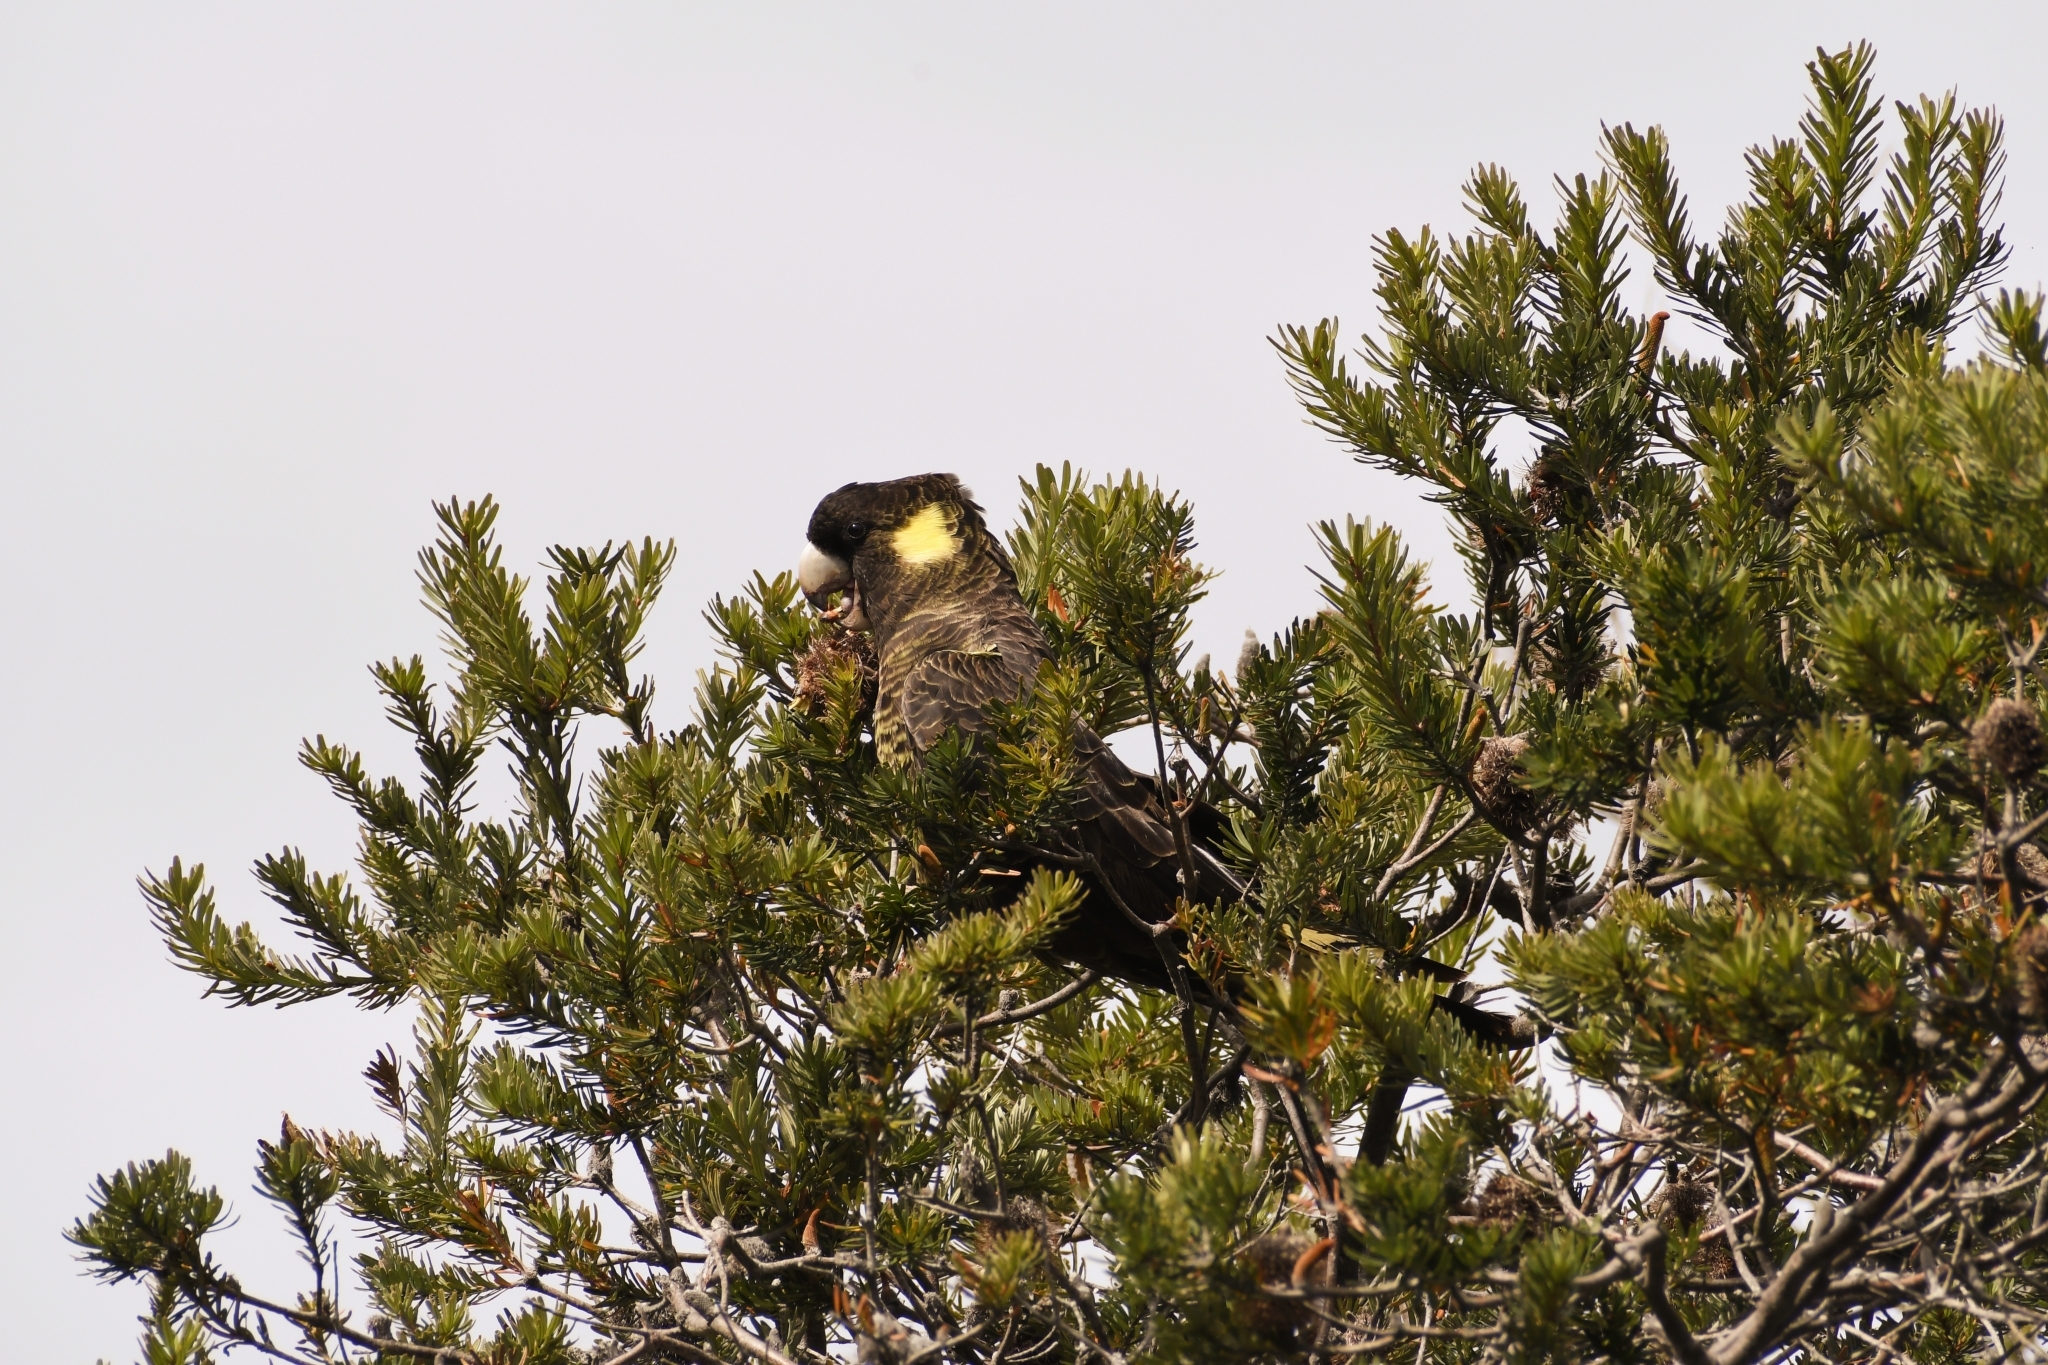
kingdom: Animalia
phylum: Chordata
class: Aves
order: Psittaciformes
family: Cacatuidae
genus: Zanda
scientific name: Zanda funerea
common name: Yellow-tailed black-cockatoo
